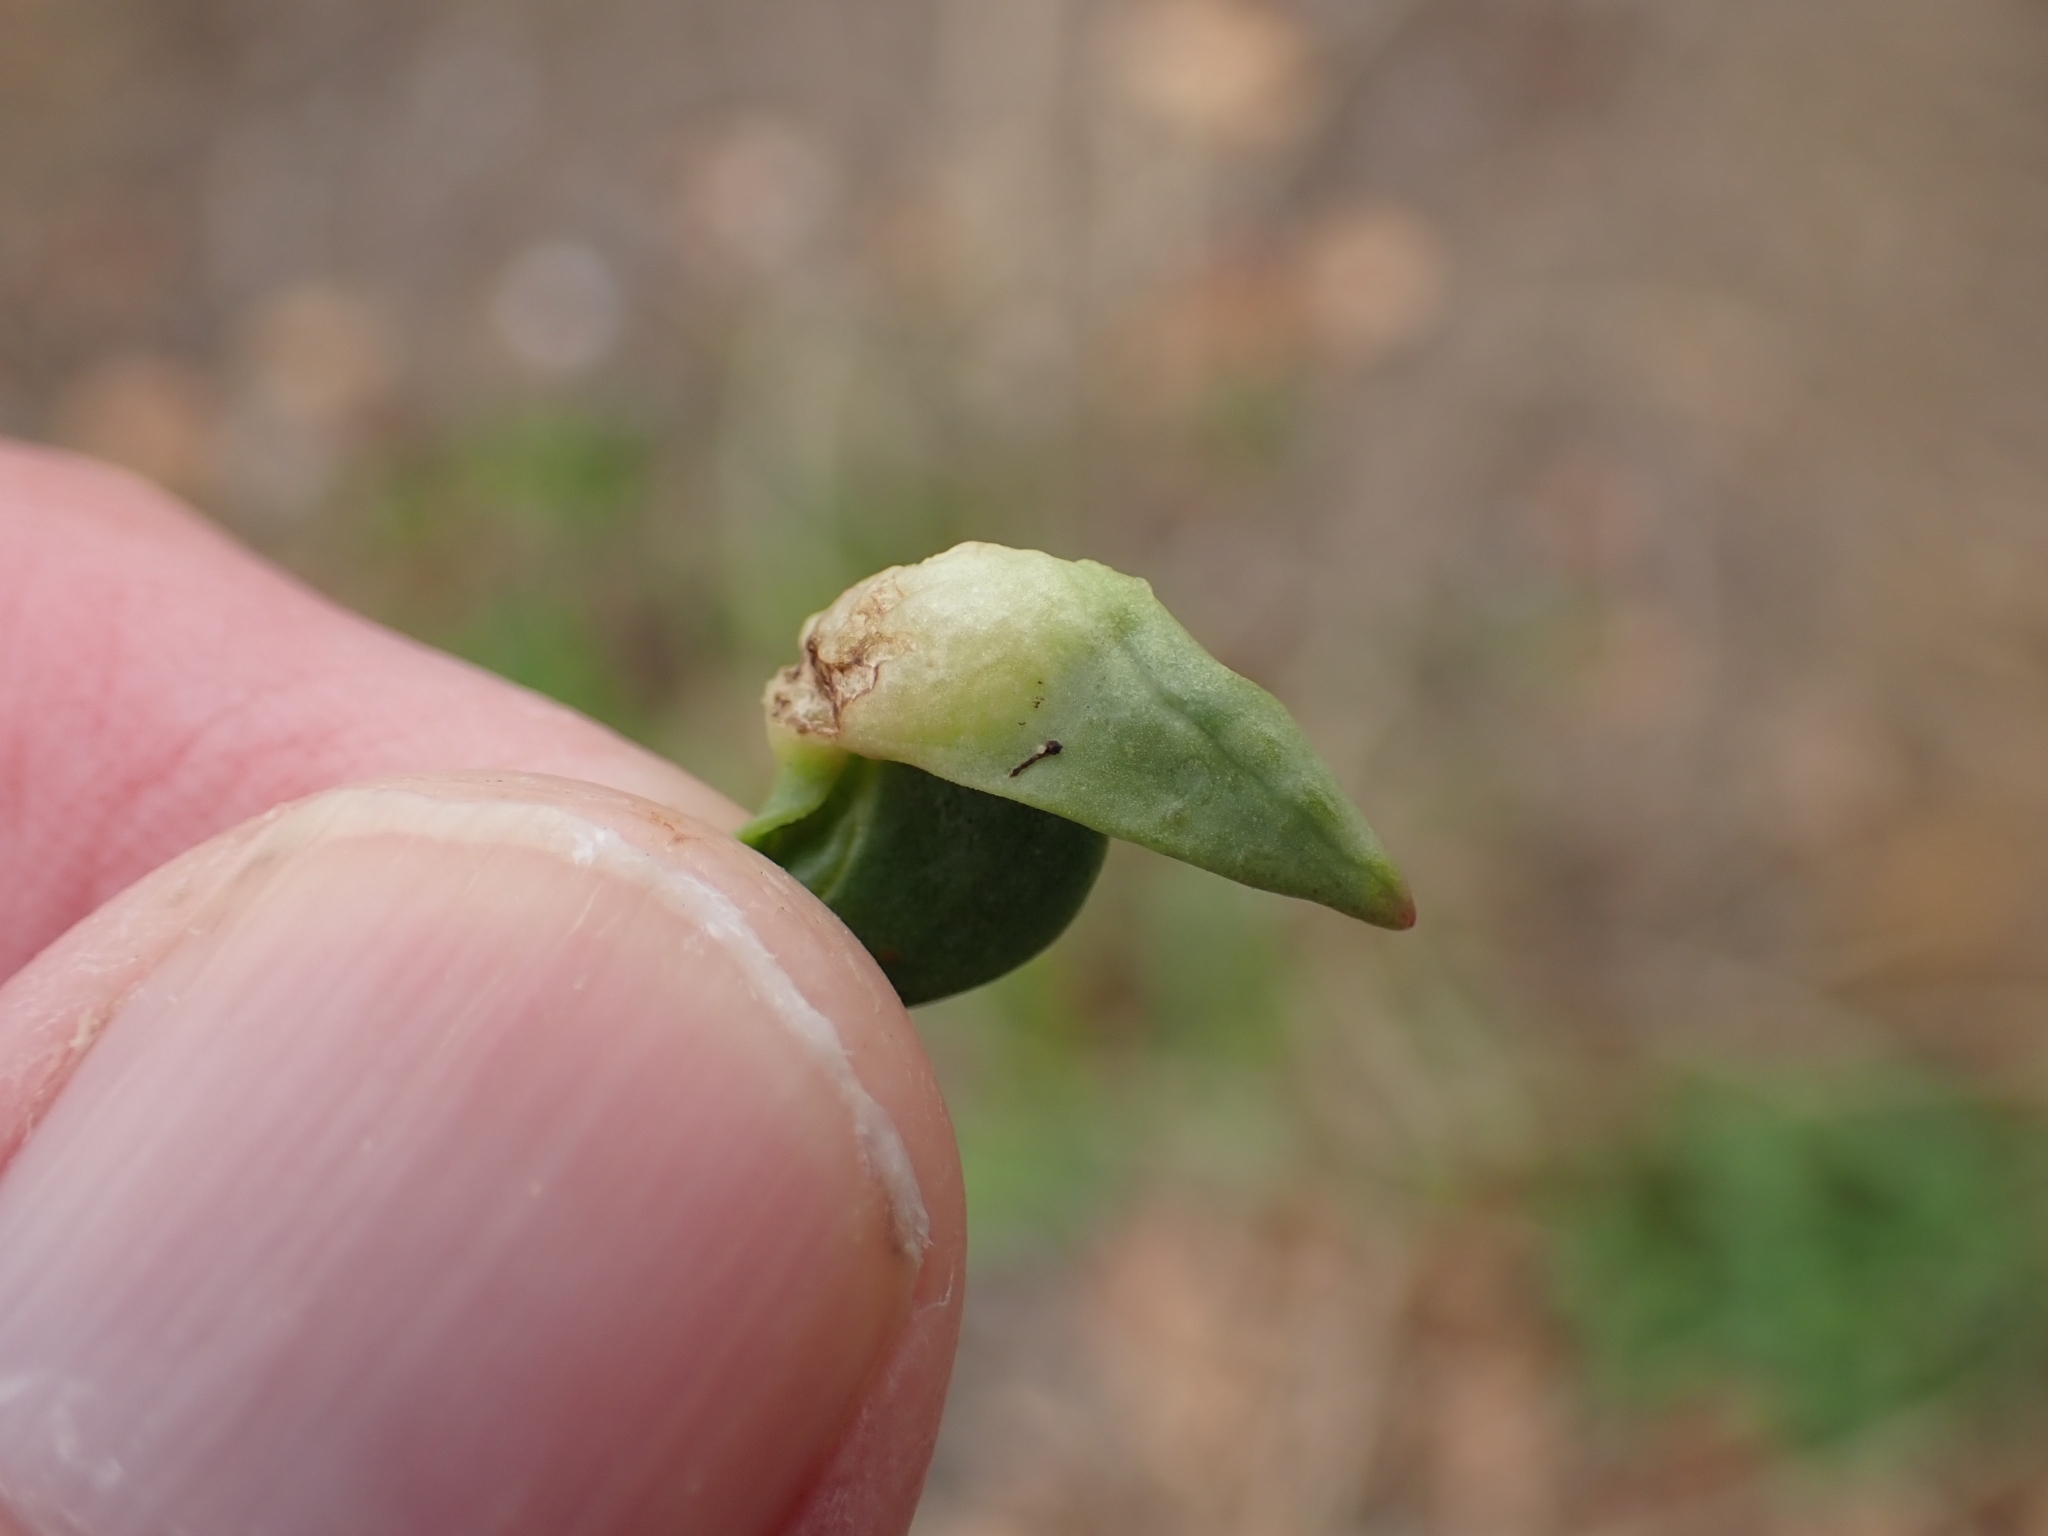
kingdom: Animalia
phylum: Arthropoda
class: Insecta
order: Hemiptera
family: Triozidae
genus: Trioza
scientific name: Trioza centranthi
